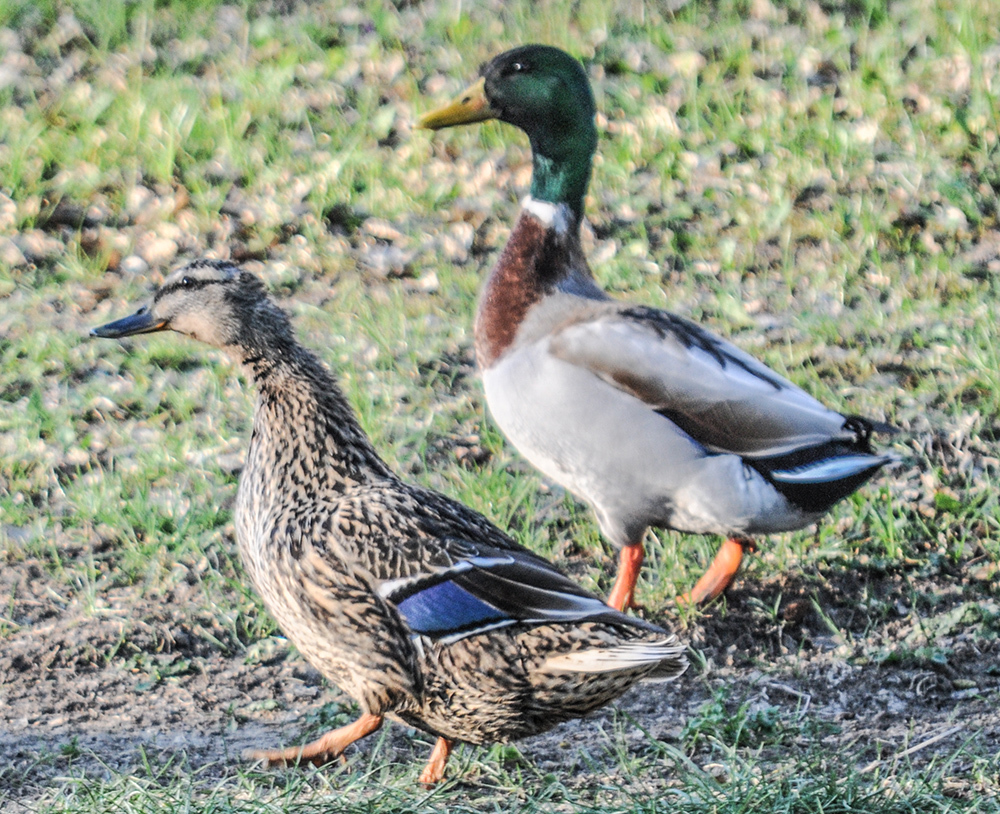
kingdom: Animalia
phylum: Chordata
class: Aves
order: Anseriformes
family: Anatidae
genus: Anas
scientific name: Anas platyrhynchos
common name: Mallard
